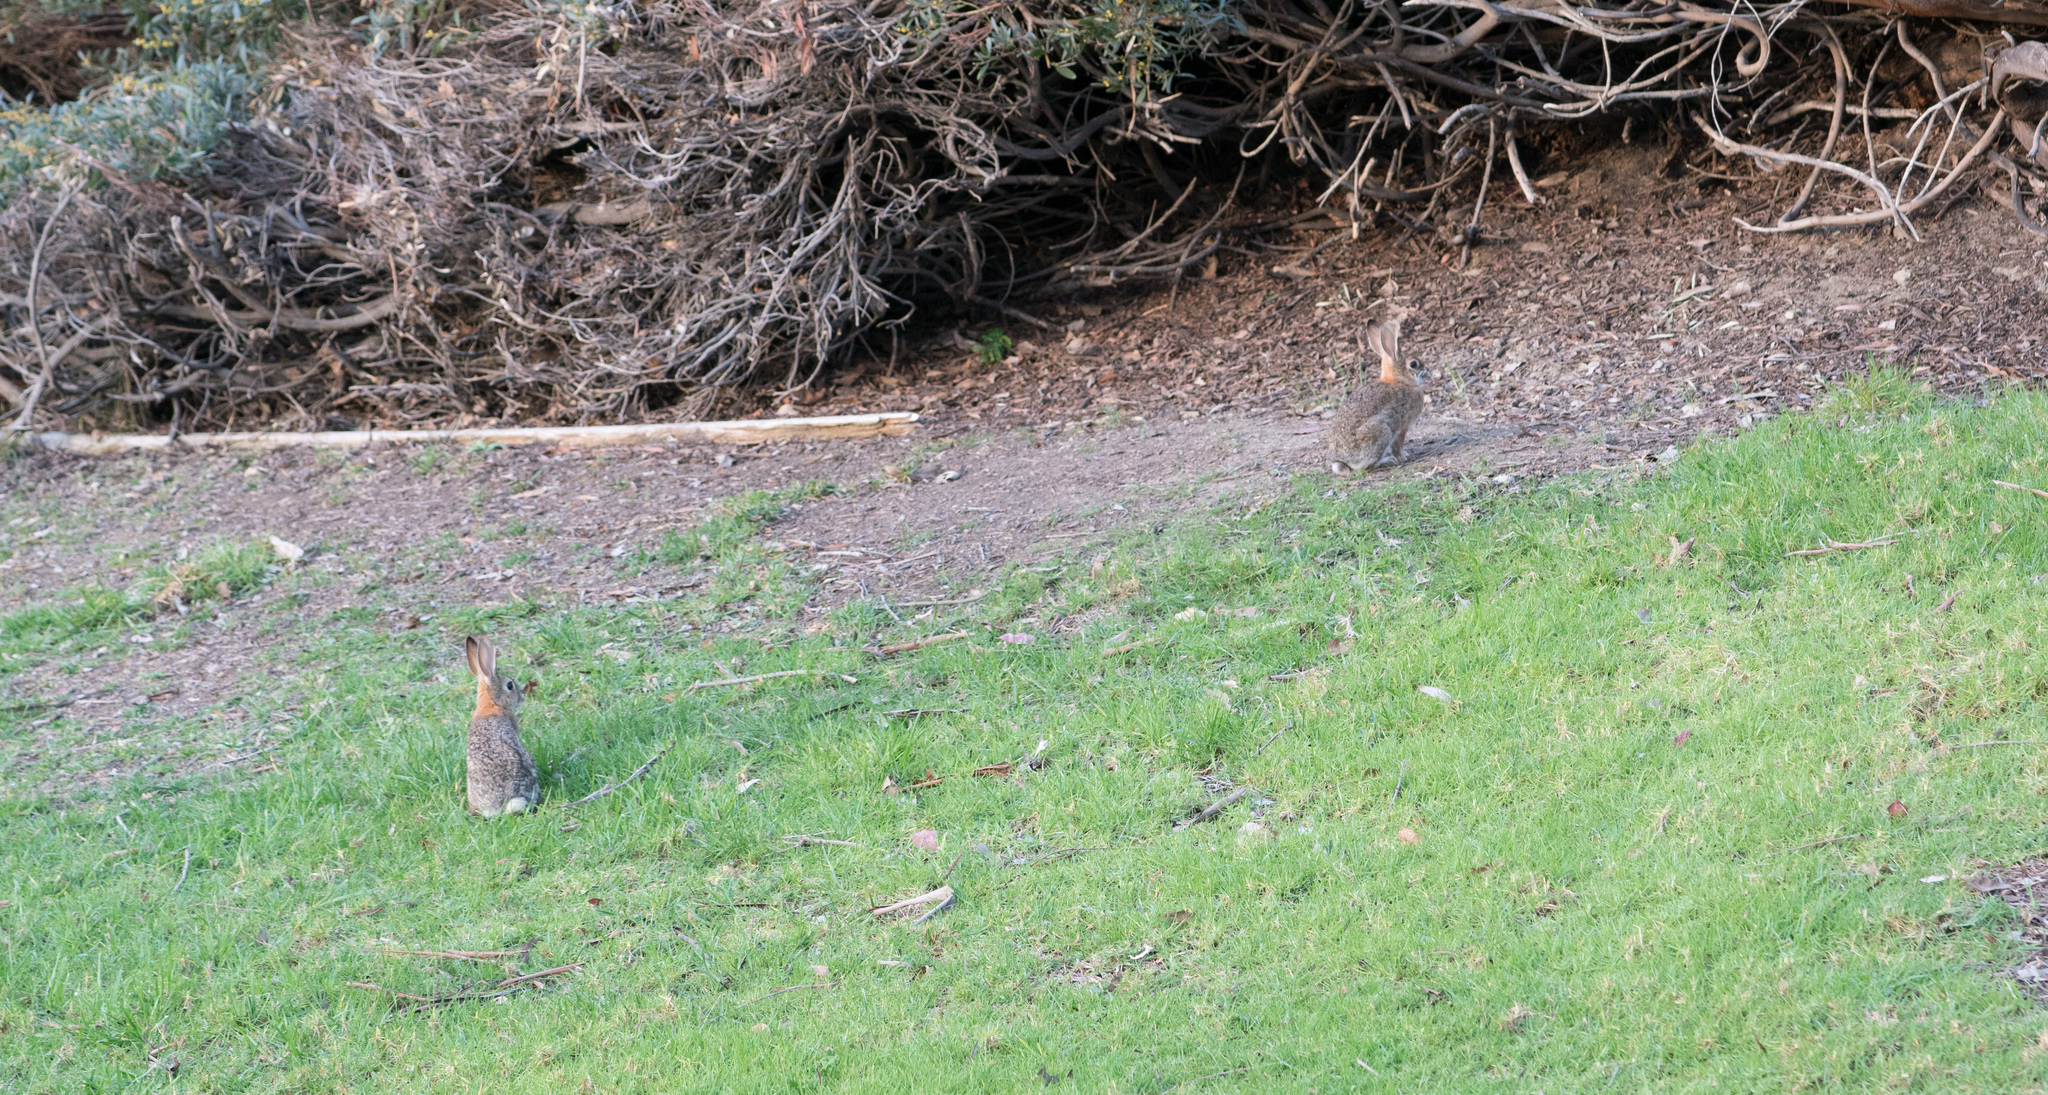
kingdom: Animalia
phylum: Chordata
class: Mammalia
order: Lagomorpha
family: Leporidae
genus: Sylvilagus
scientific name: Sylvilagus audubonii
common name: Desert cottontail
